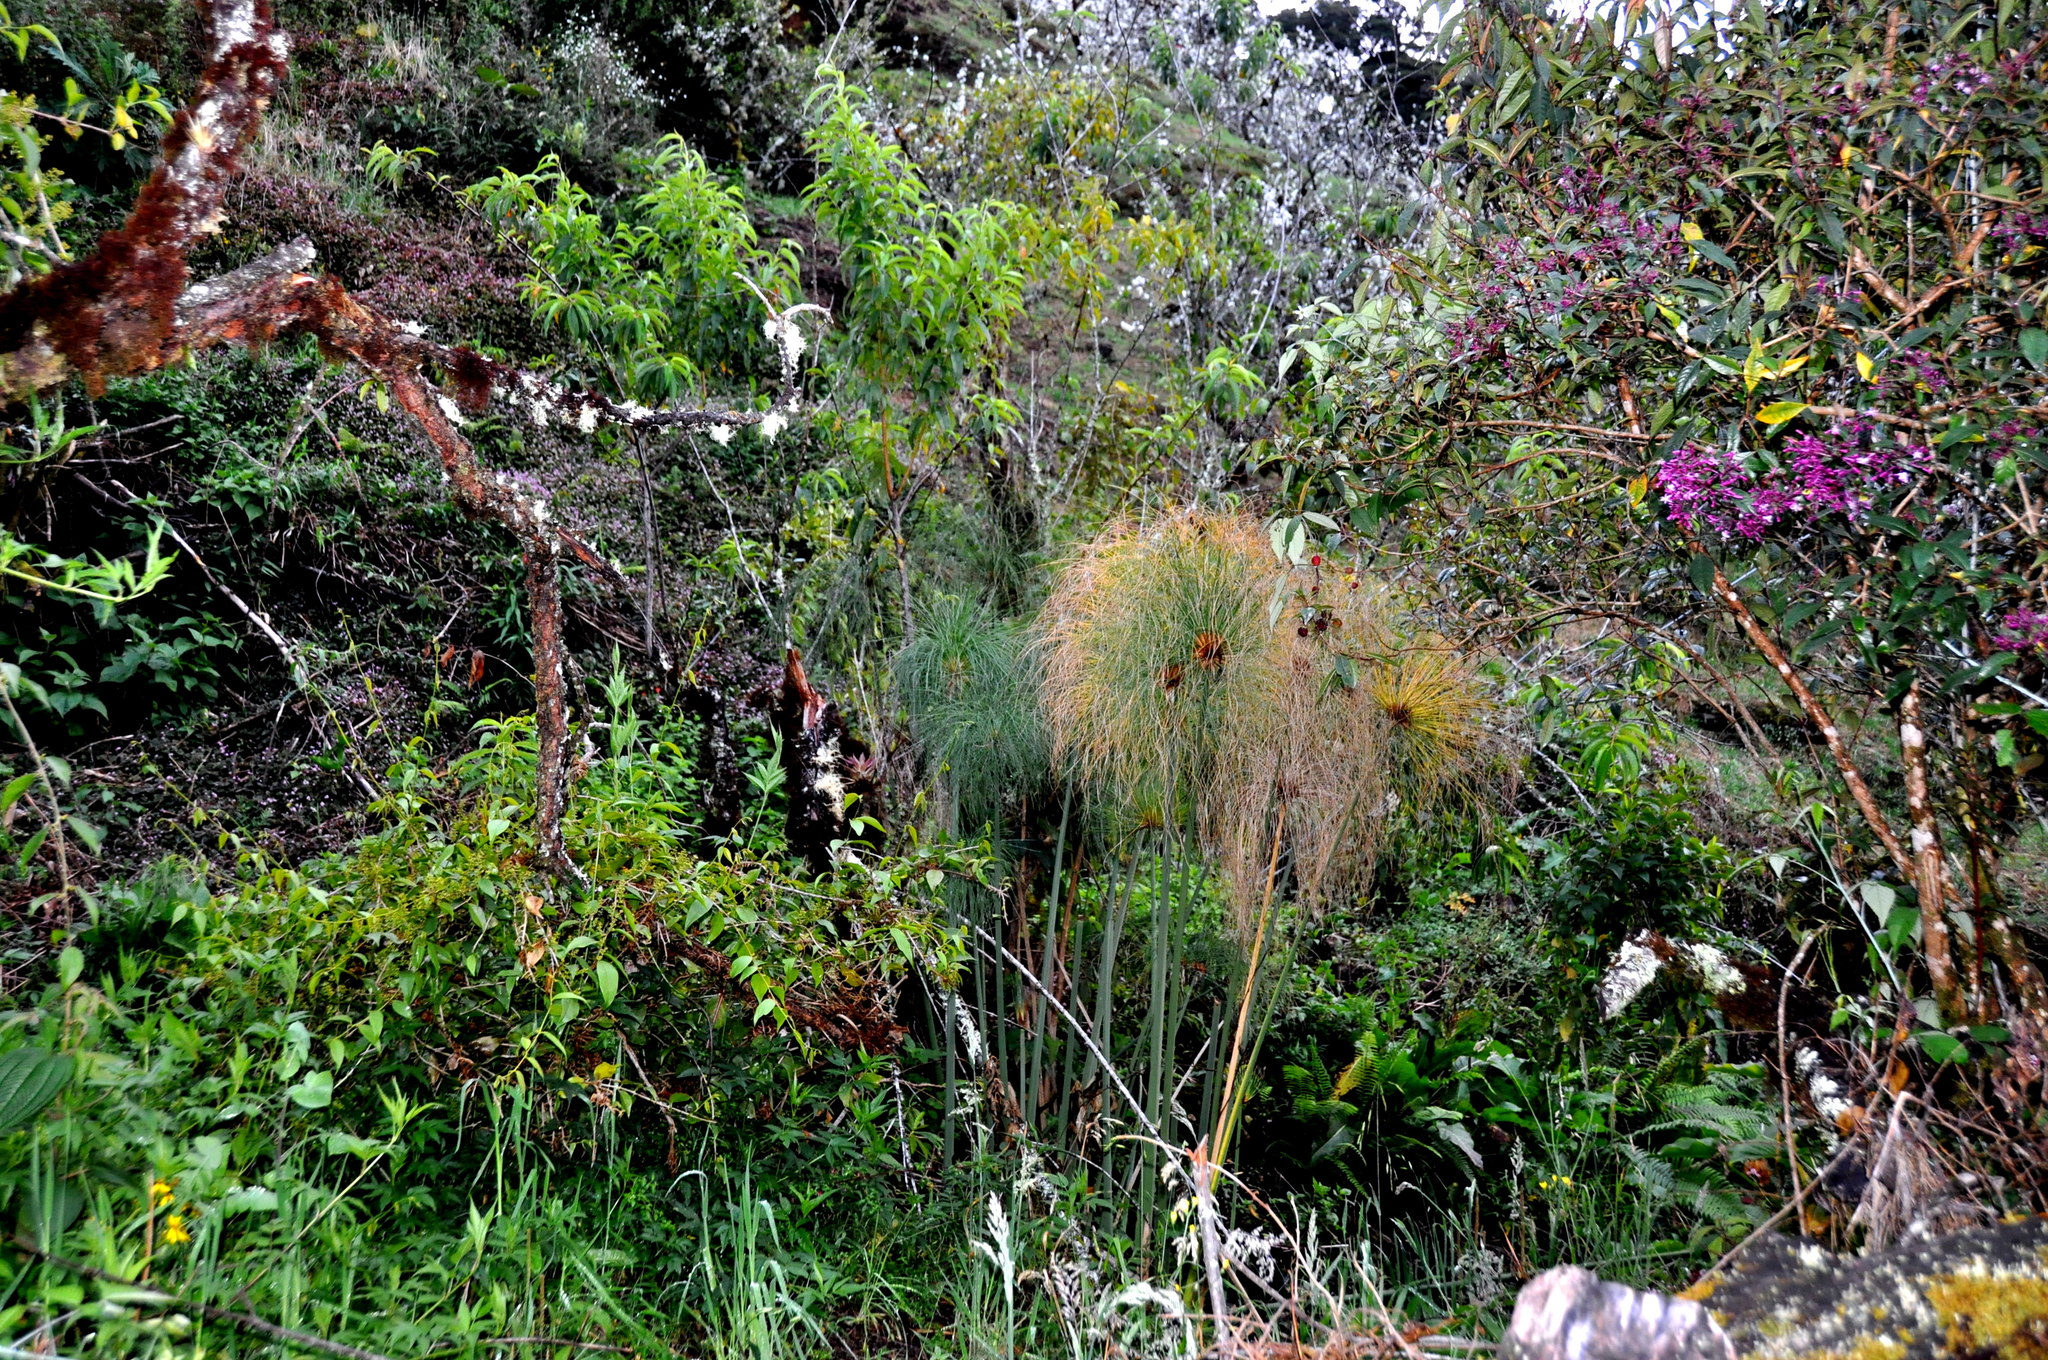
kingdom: Plantae
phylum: Tracheophyta
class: Liliopsida
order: Poales
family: Cyperaceae
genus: Cyperus
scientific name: Cyperus papyrus
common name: Papyrus
